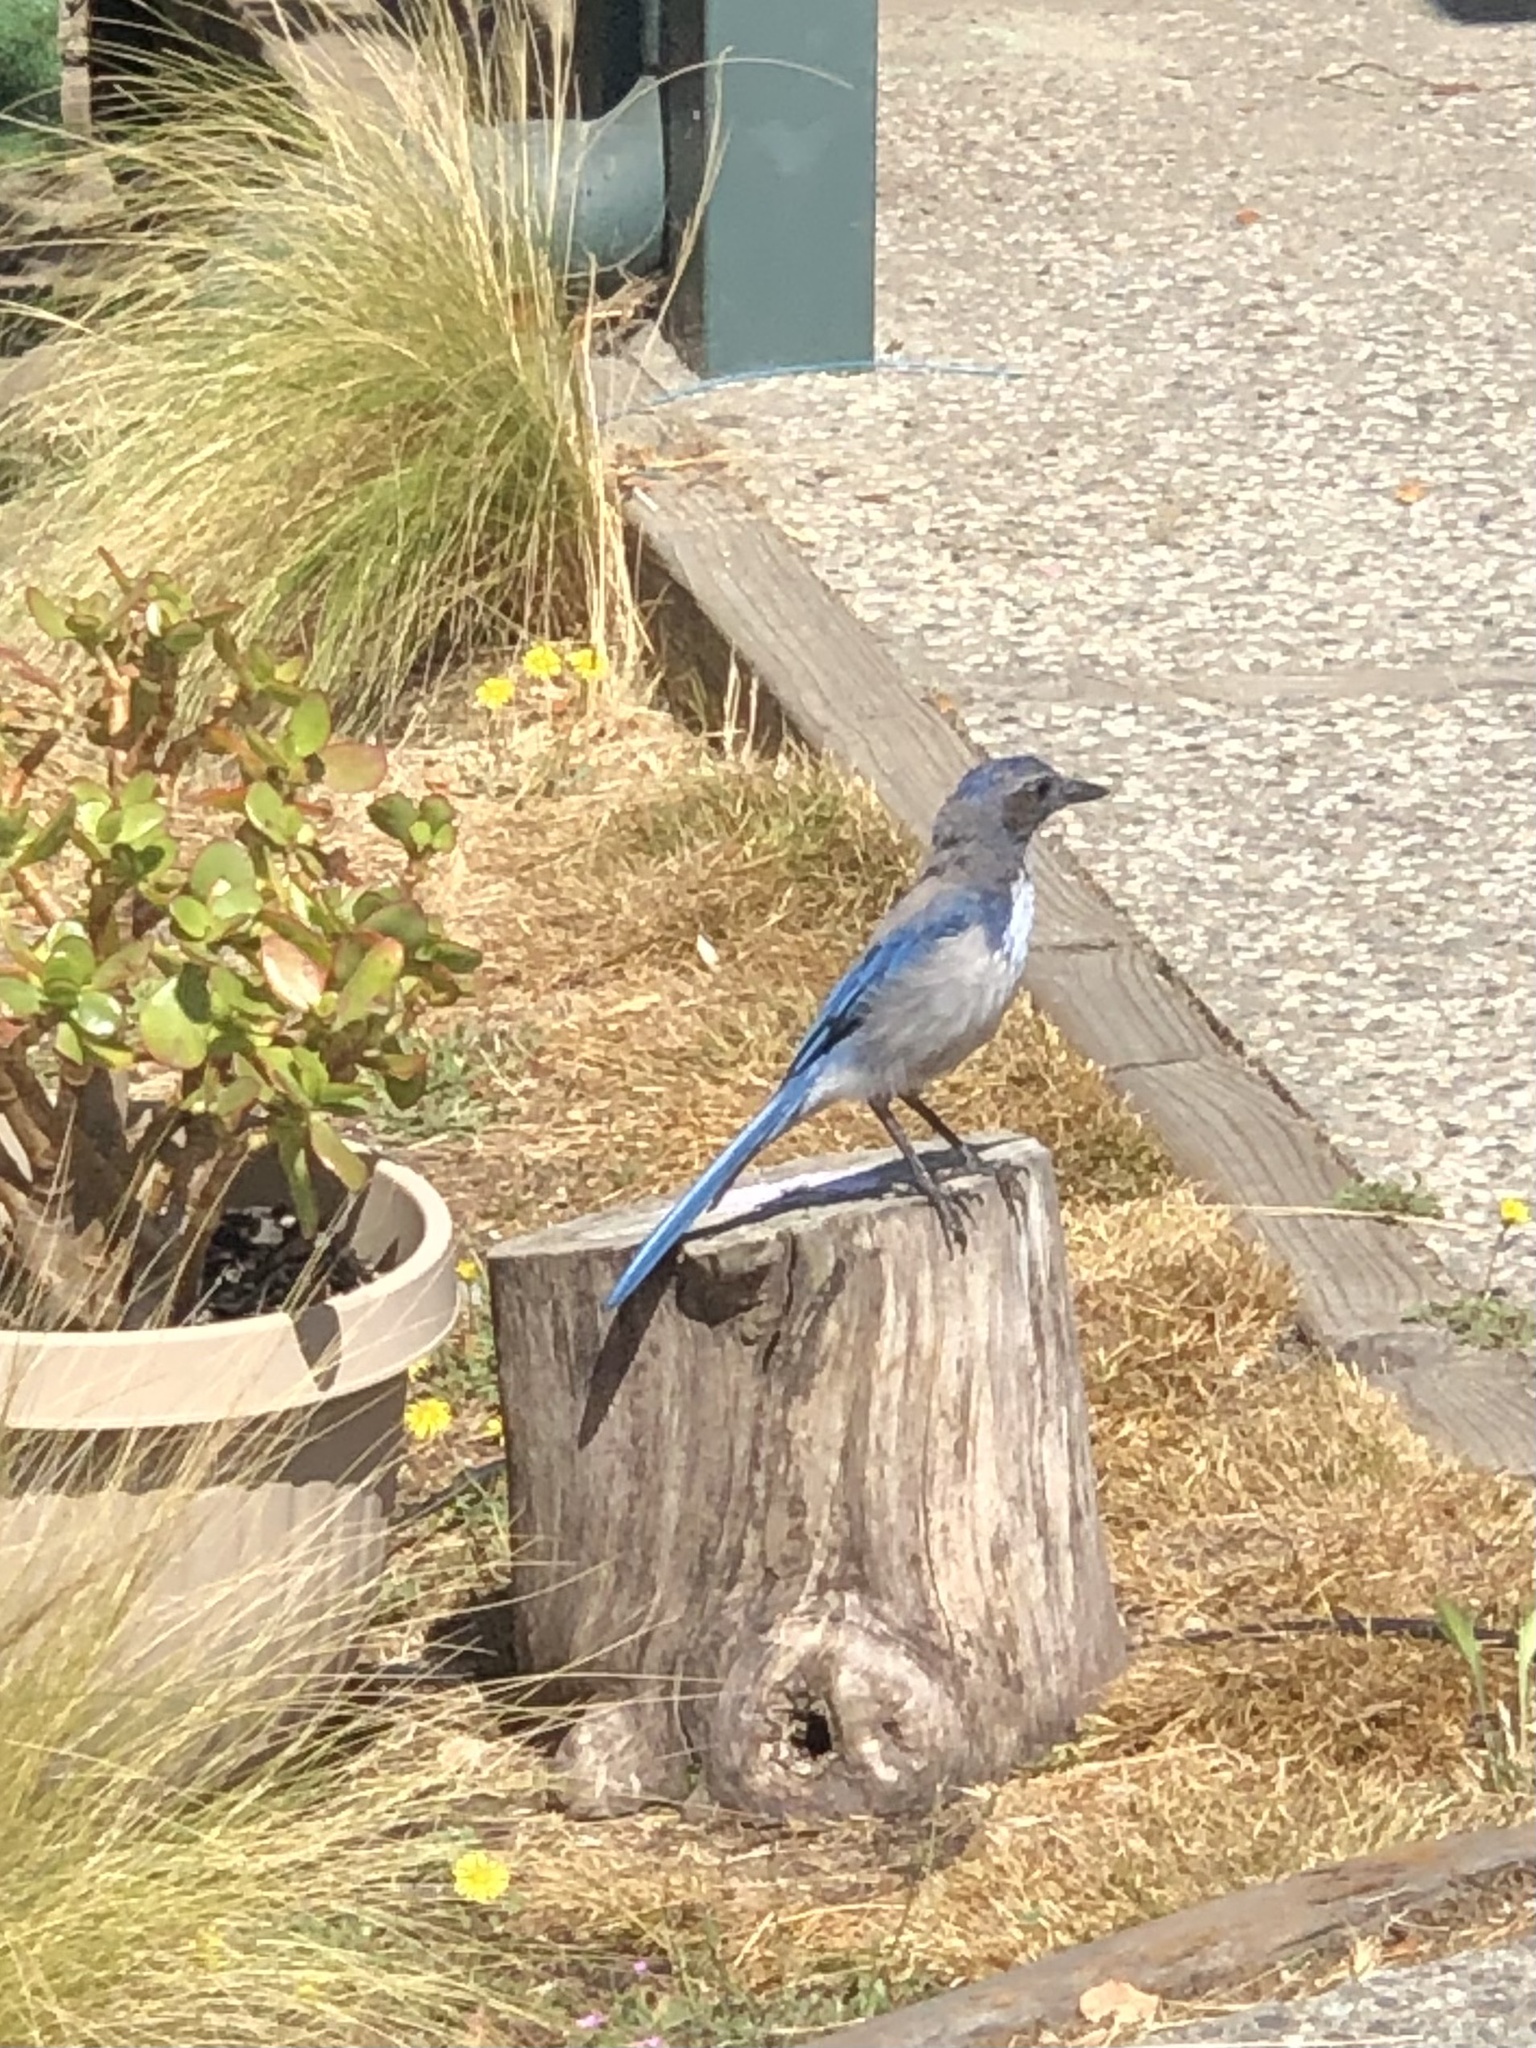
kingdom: Animalia
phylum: Chordata
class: Aves
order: Passeriformes
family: Corvidae
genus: Aphelocoma
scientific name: Aphelocoma californica
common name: California scrub-jay
